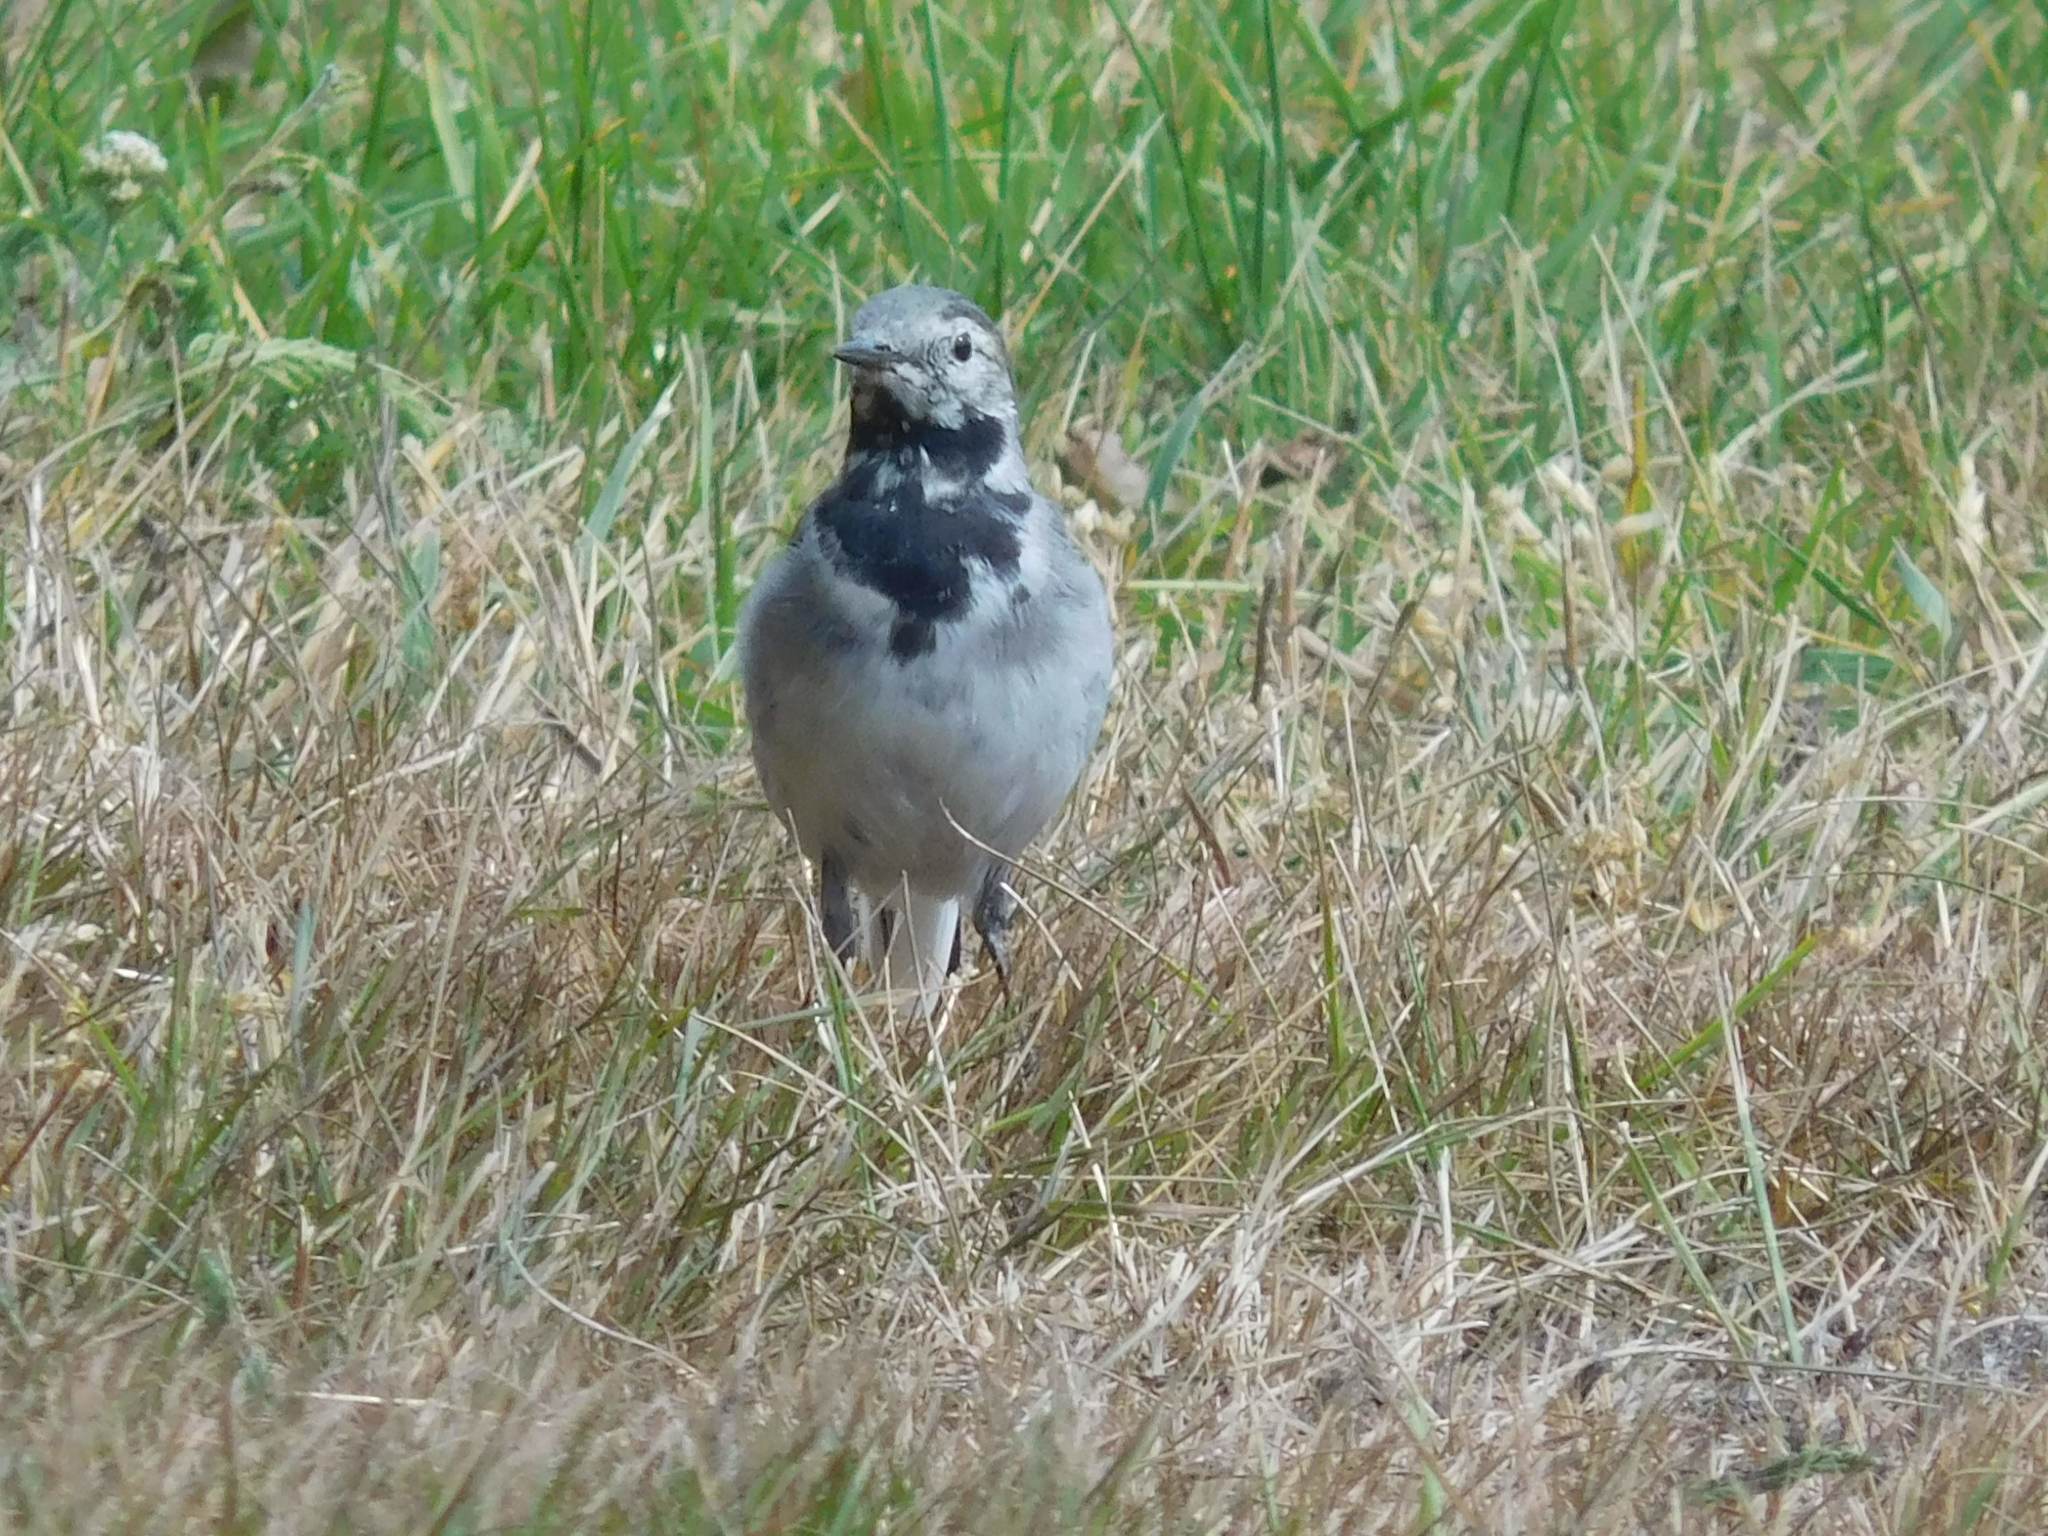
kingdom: Animalia
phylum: Chordata
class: Aves
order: Passeriformes
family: Motacillidae
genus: Motacilla
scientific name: Motacilla alba
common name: White wagtail
